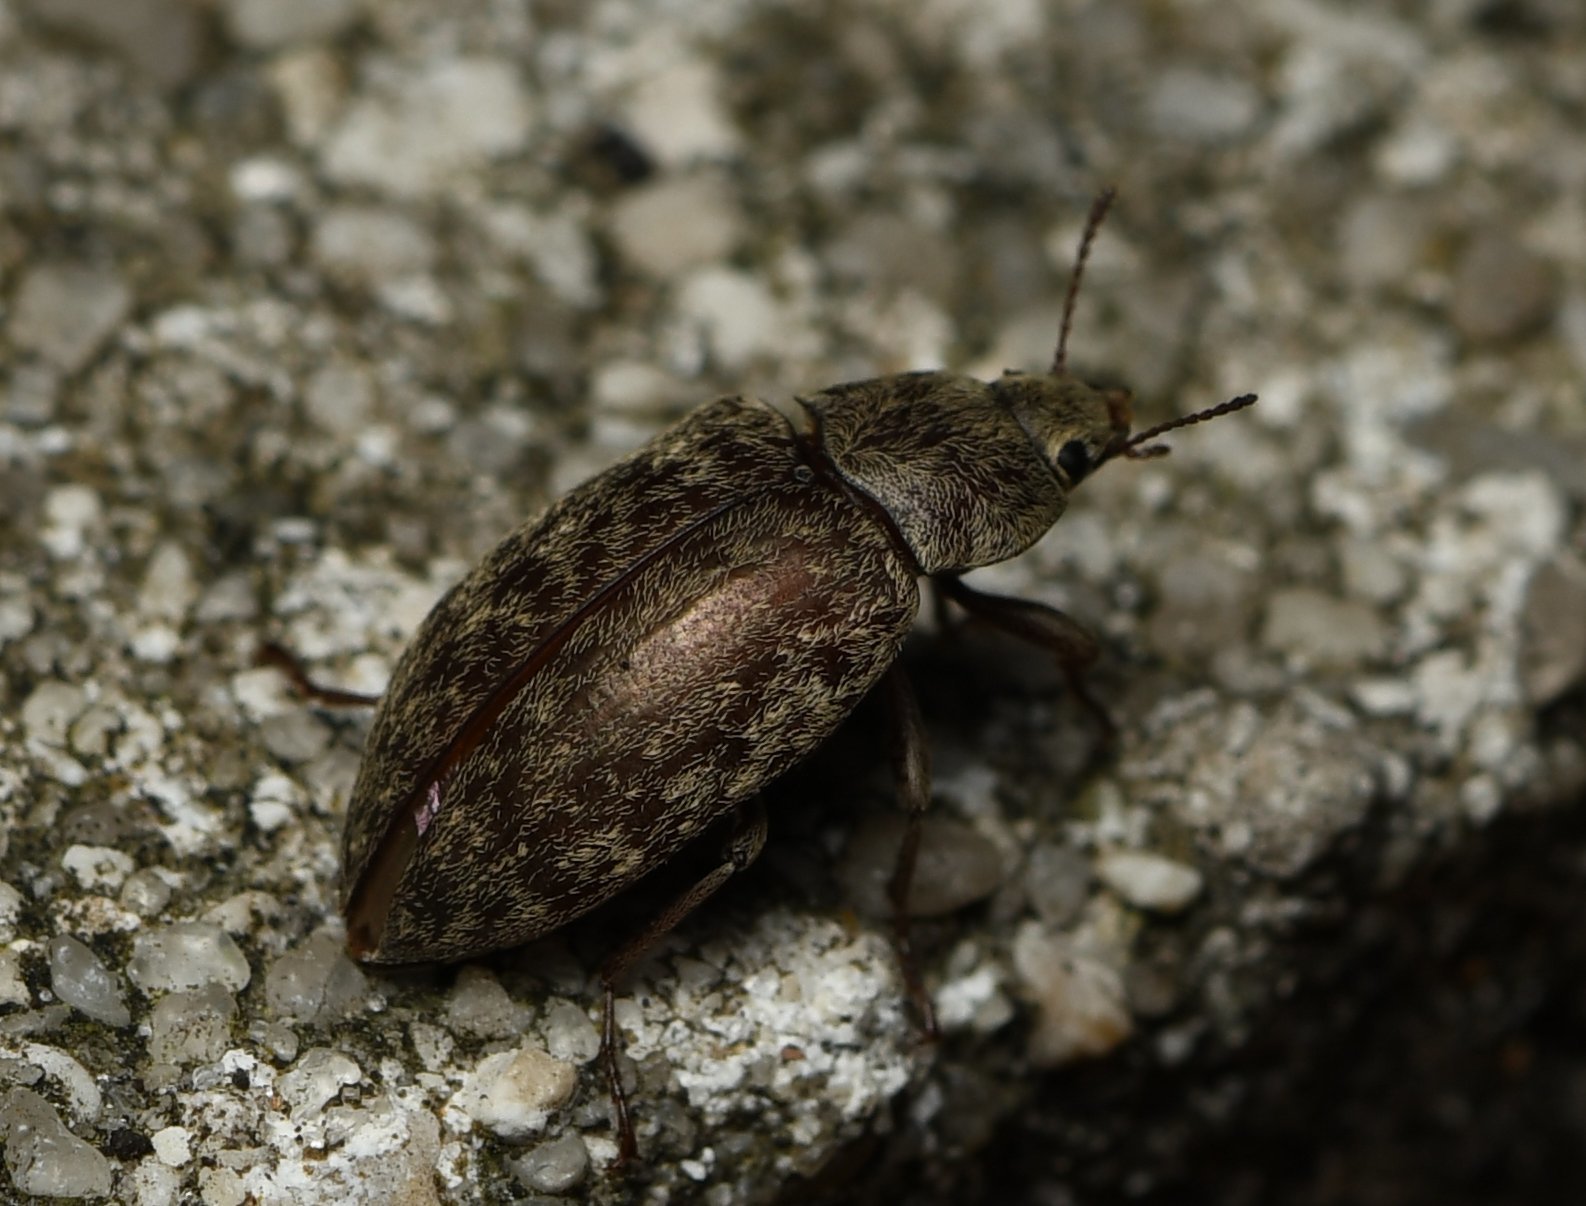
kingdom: Animalia
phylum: Arthropoda
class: Insecta
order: Coleoptera
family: Tenebrionidae
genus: Epitragodes
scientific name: Epitragodes tomentosus
